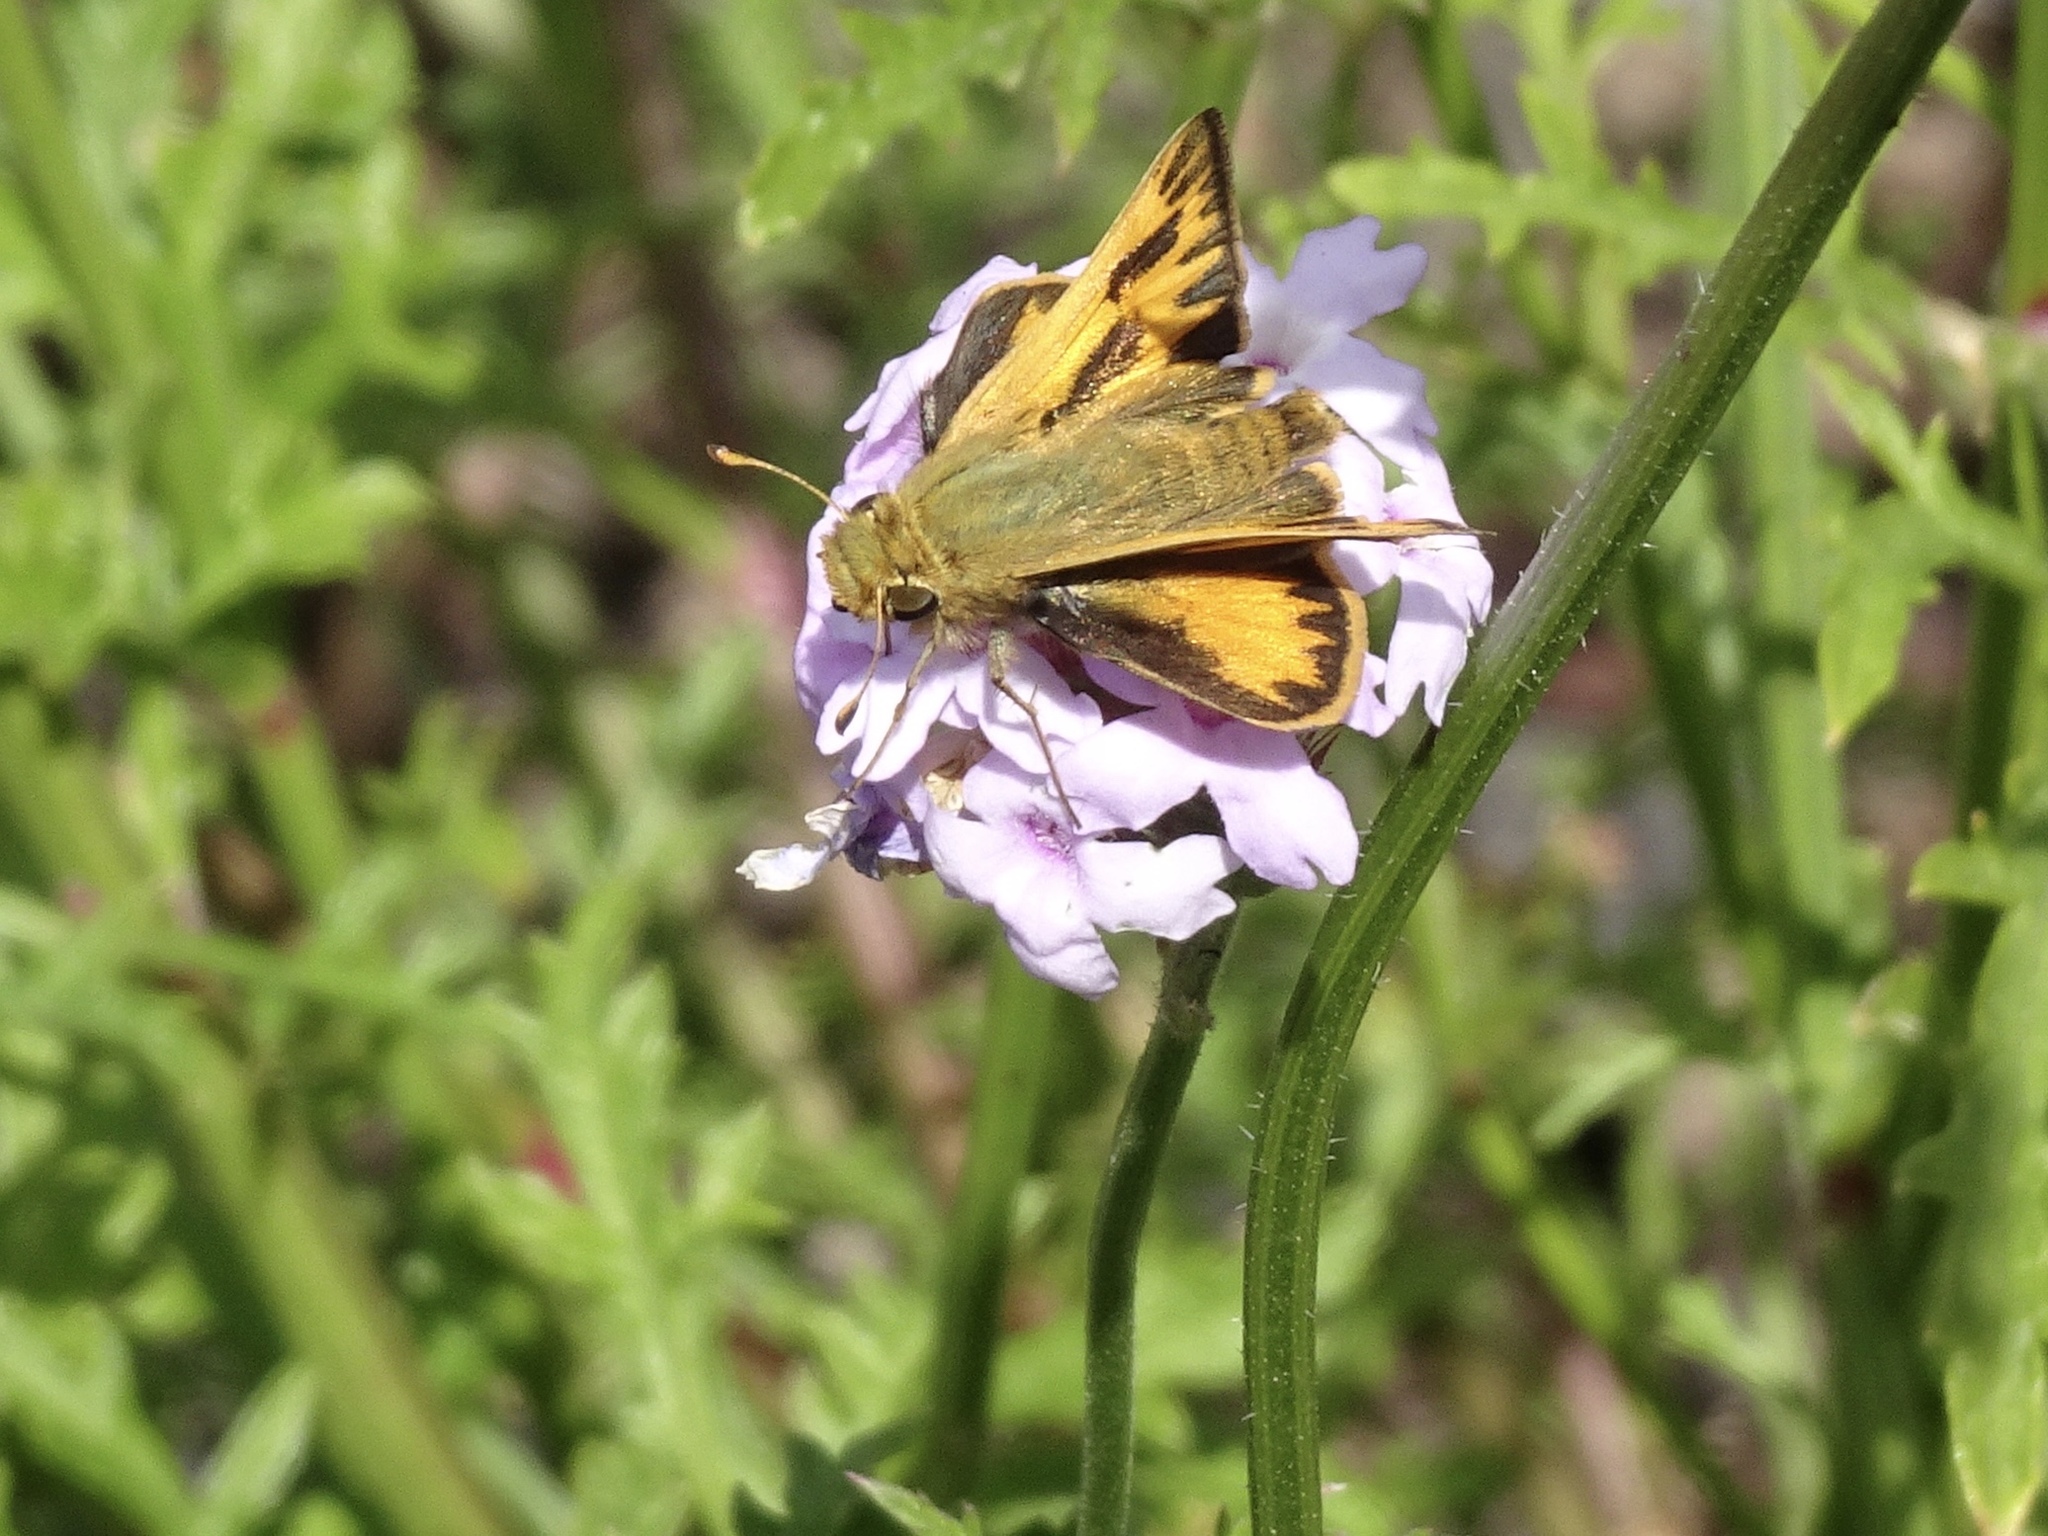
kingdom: Animalia
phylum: Arthropoda
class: Insecta
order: Lepidoptera
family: Hesperiidae
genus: Hylephila
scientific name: Hylephila phyleus
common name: Fiery skipper
